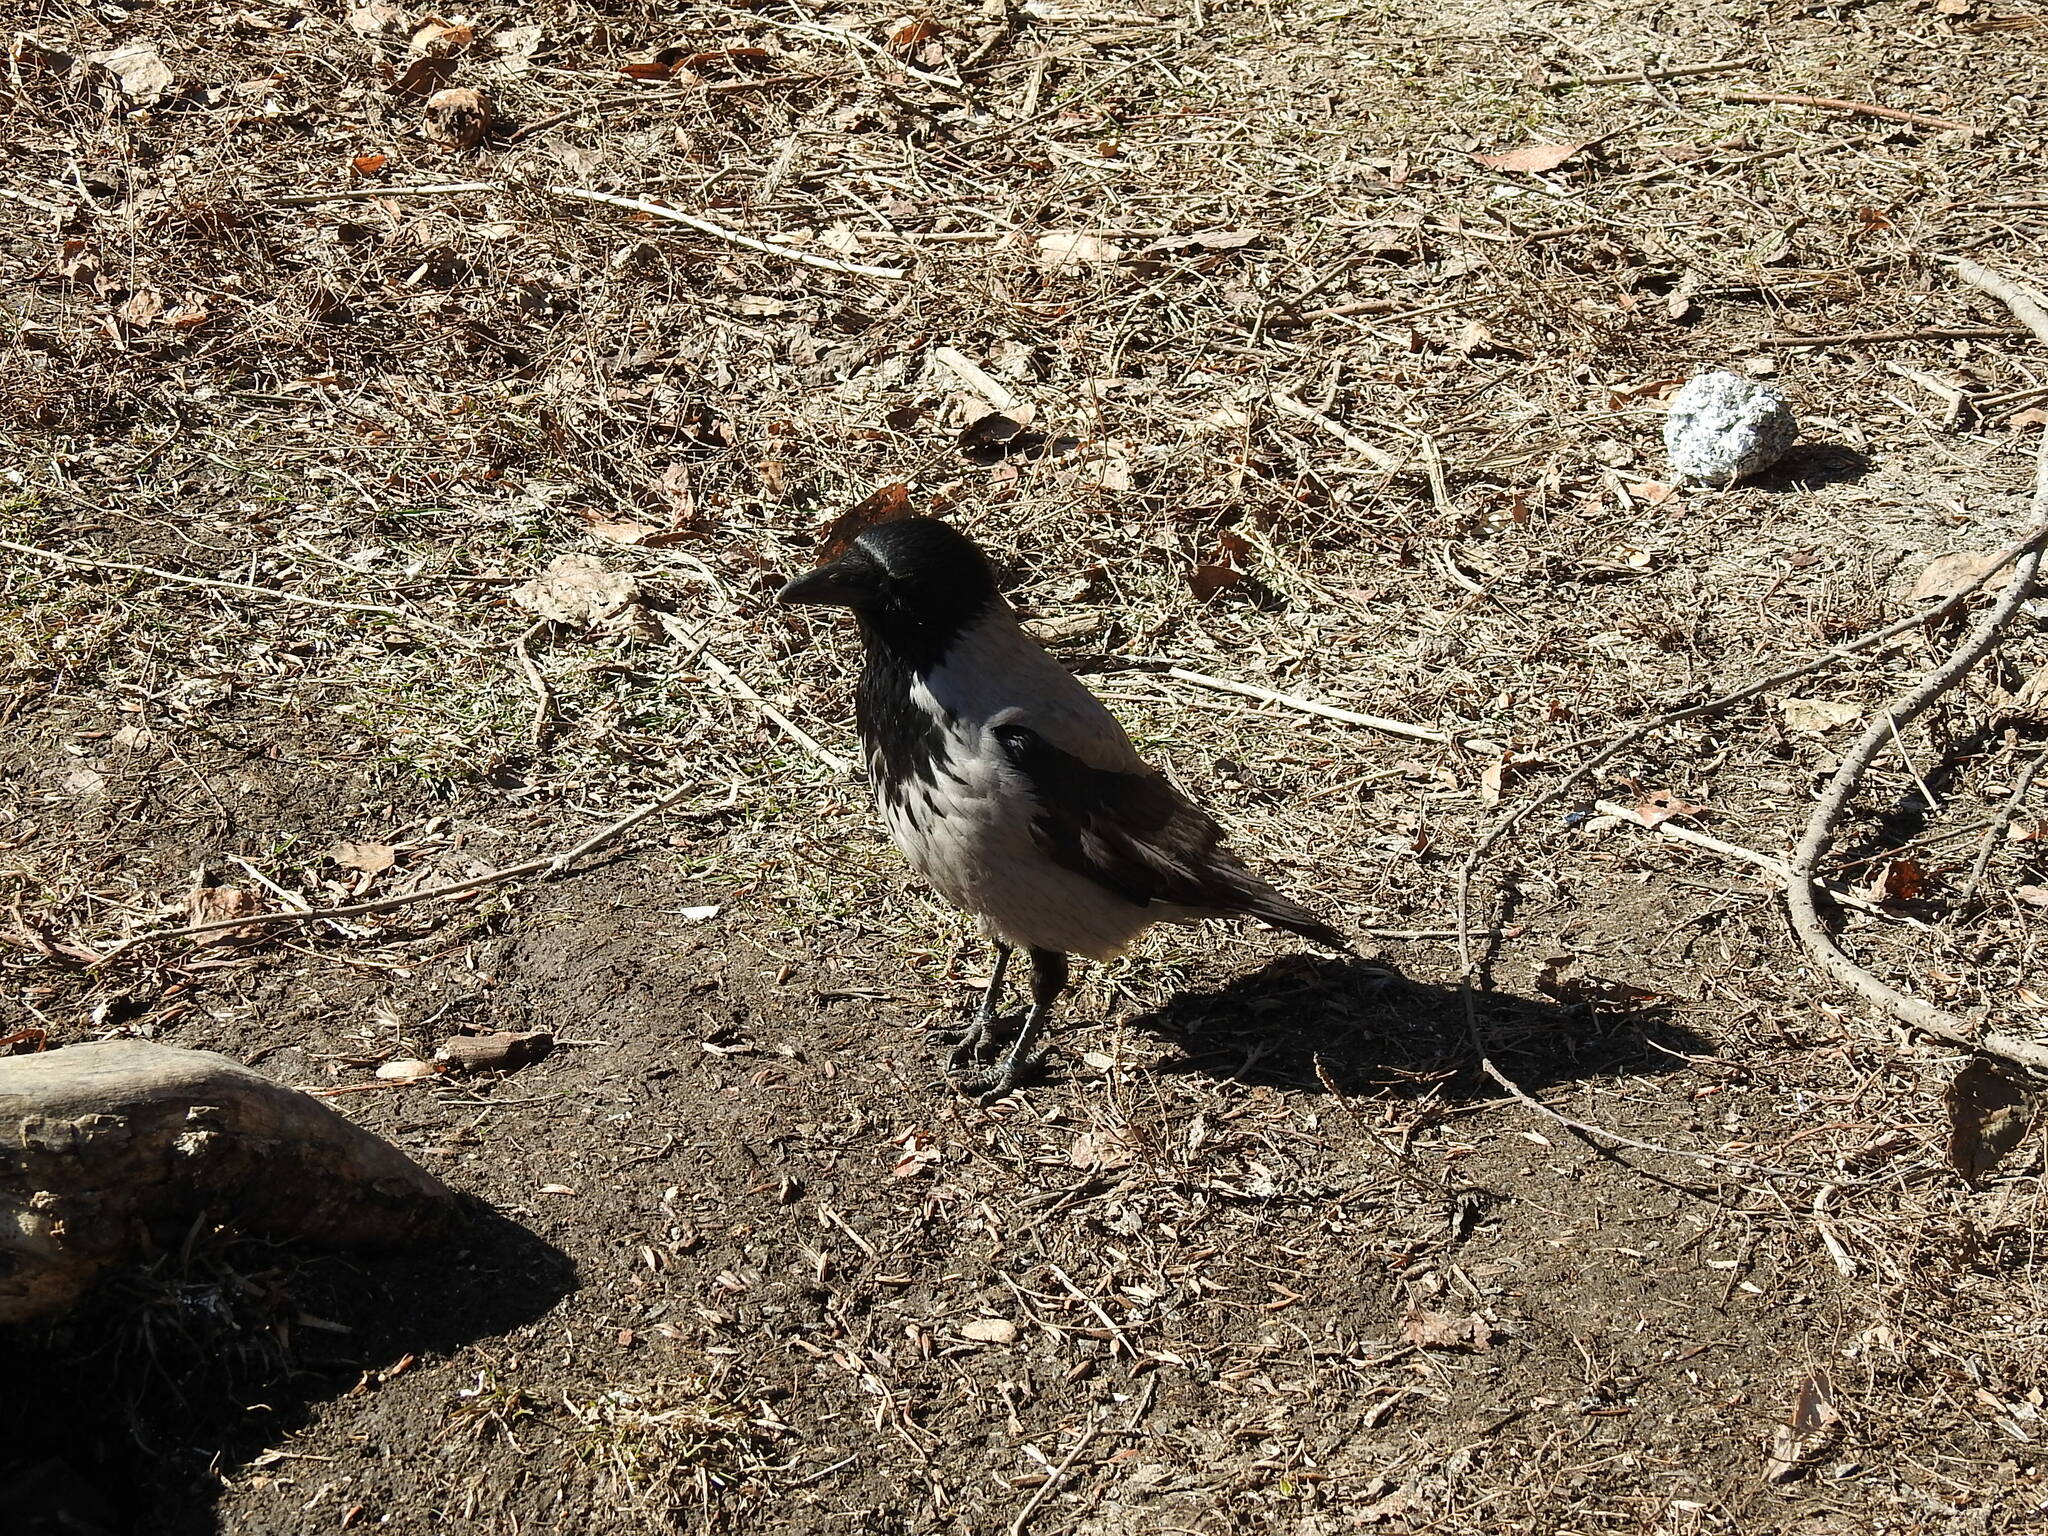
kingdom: Animalia
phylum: Chordata
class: Aves
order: Passeriformes
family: Corvidae
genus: Corvus
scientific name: Corvus cornix
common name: Hooded crow
